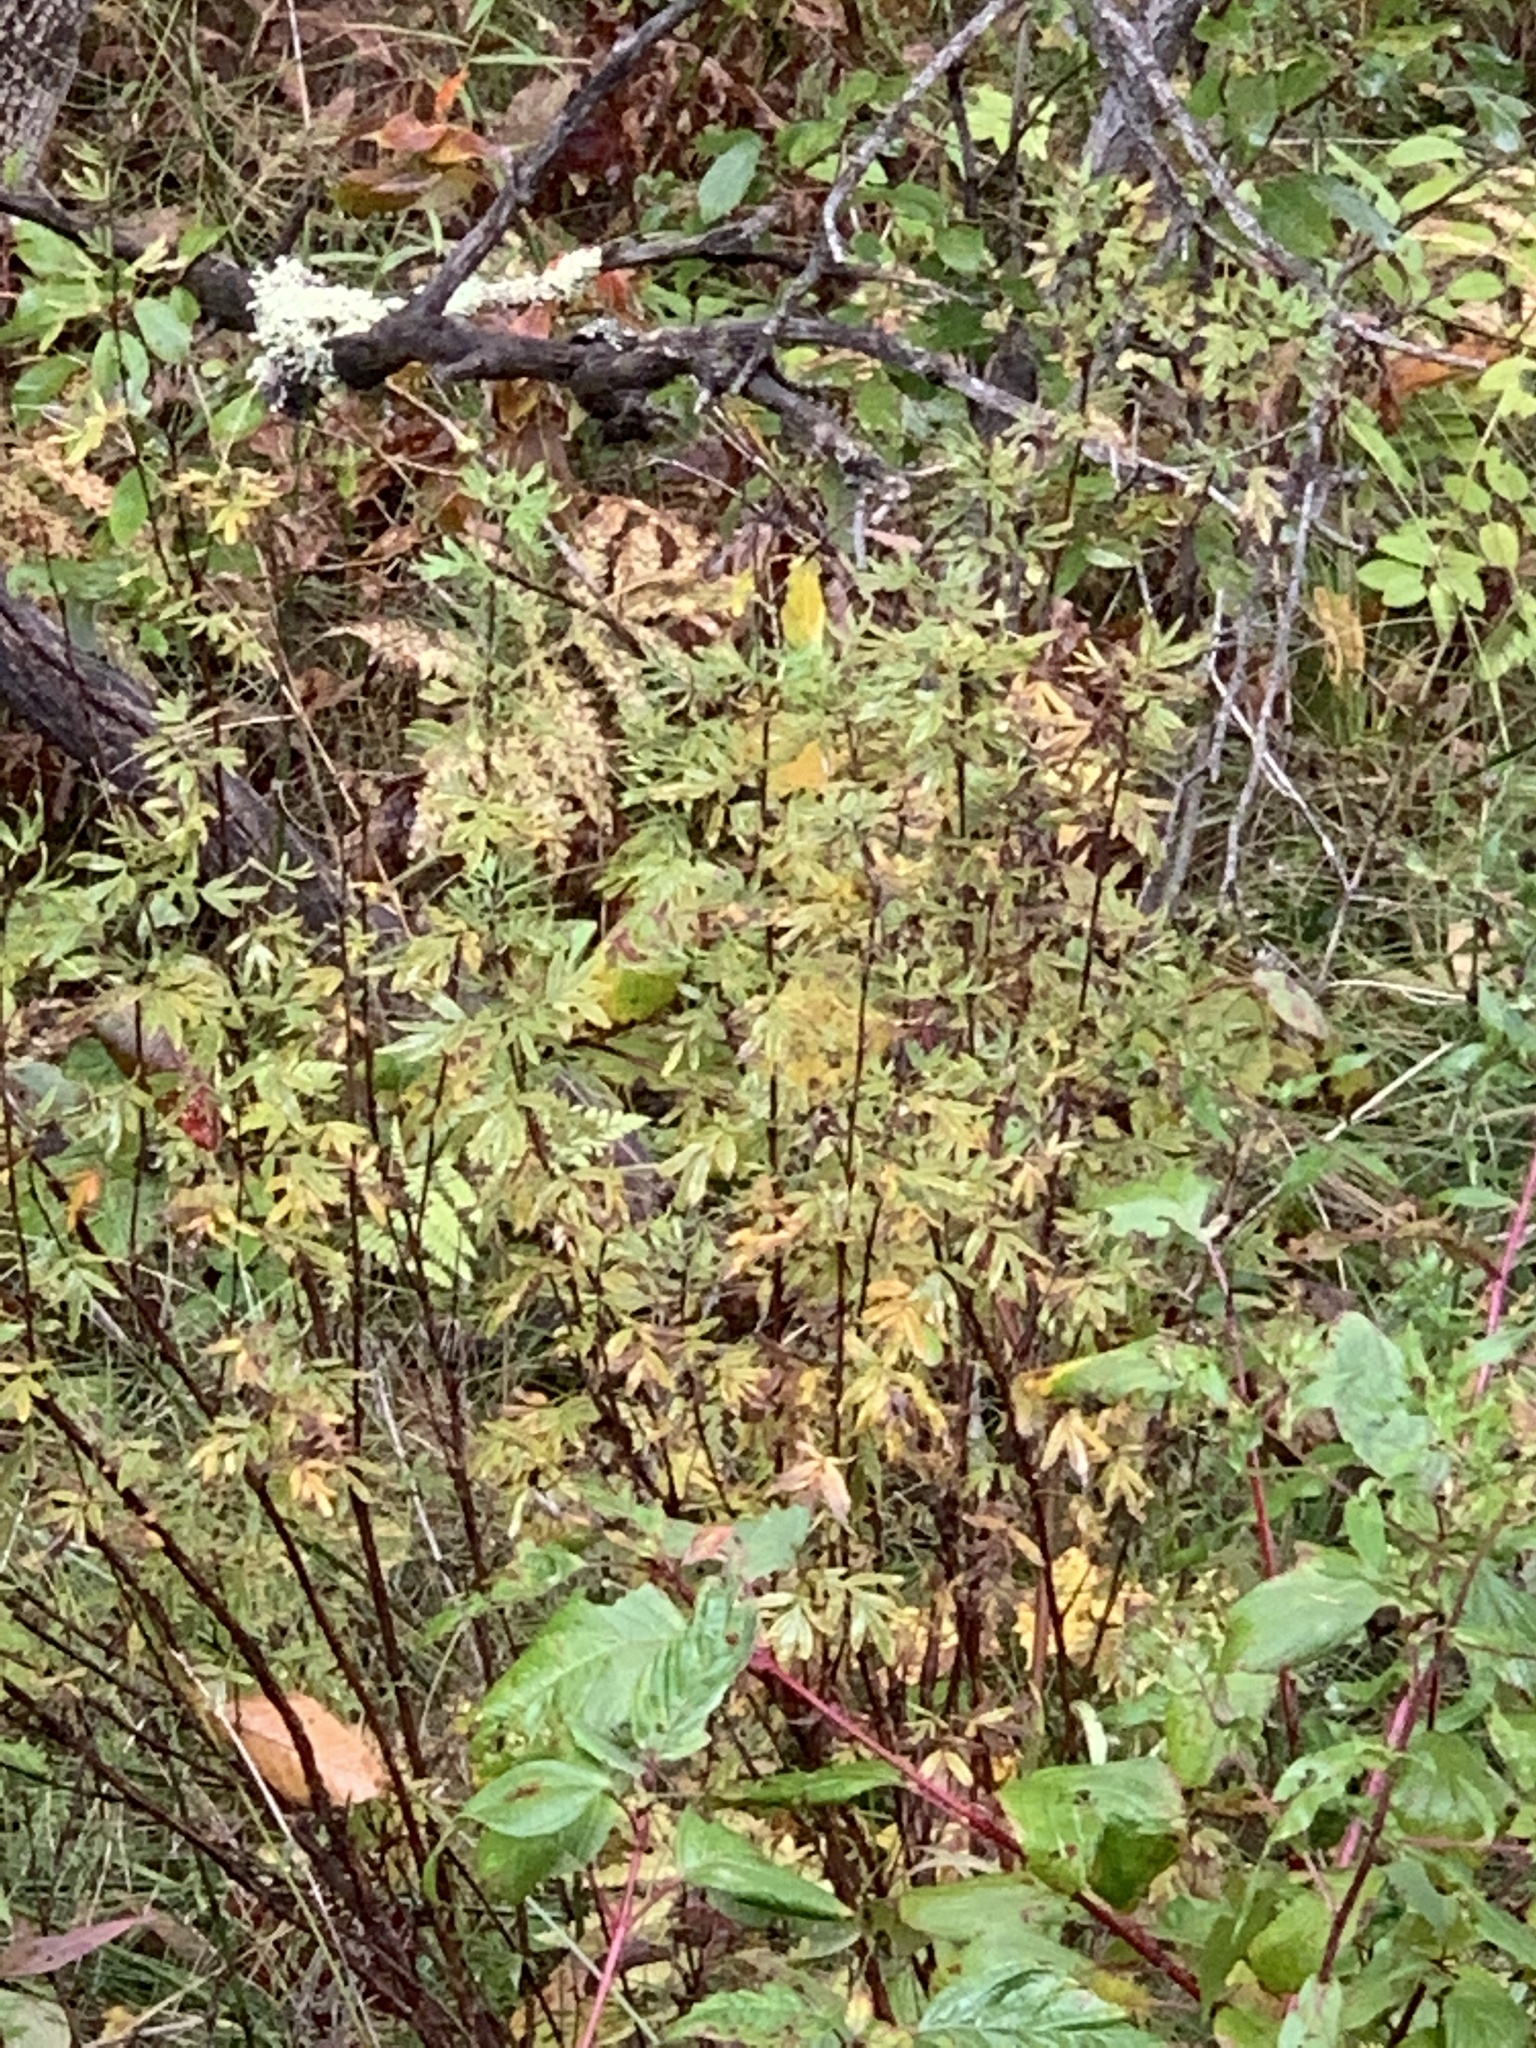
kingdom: Plantae
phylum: Tracheophyta
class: Magnoliopsida
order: Rosales
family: Rosaceae
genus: Dasiphora
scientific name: Dasiphora fruticosa
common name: Shrubby cinquefoil
